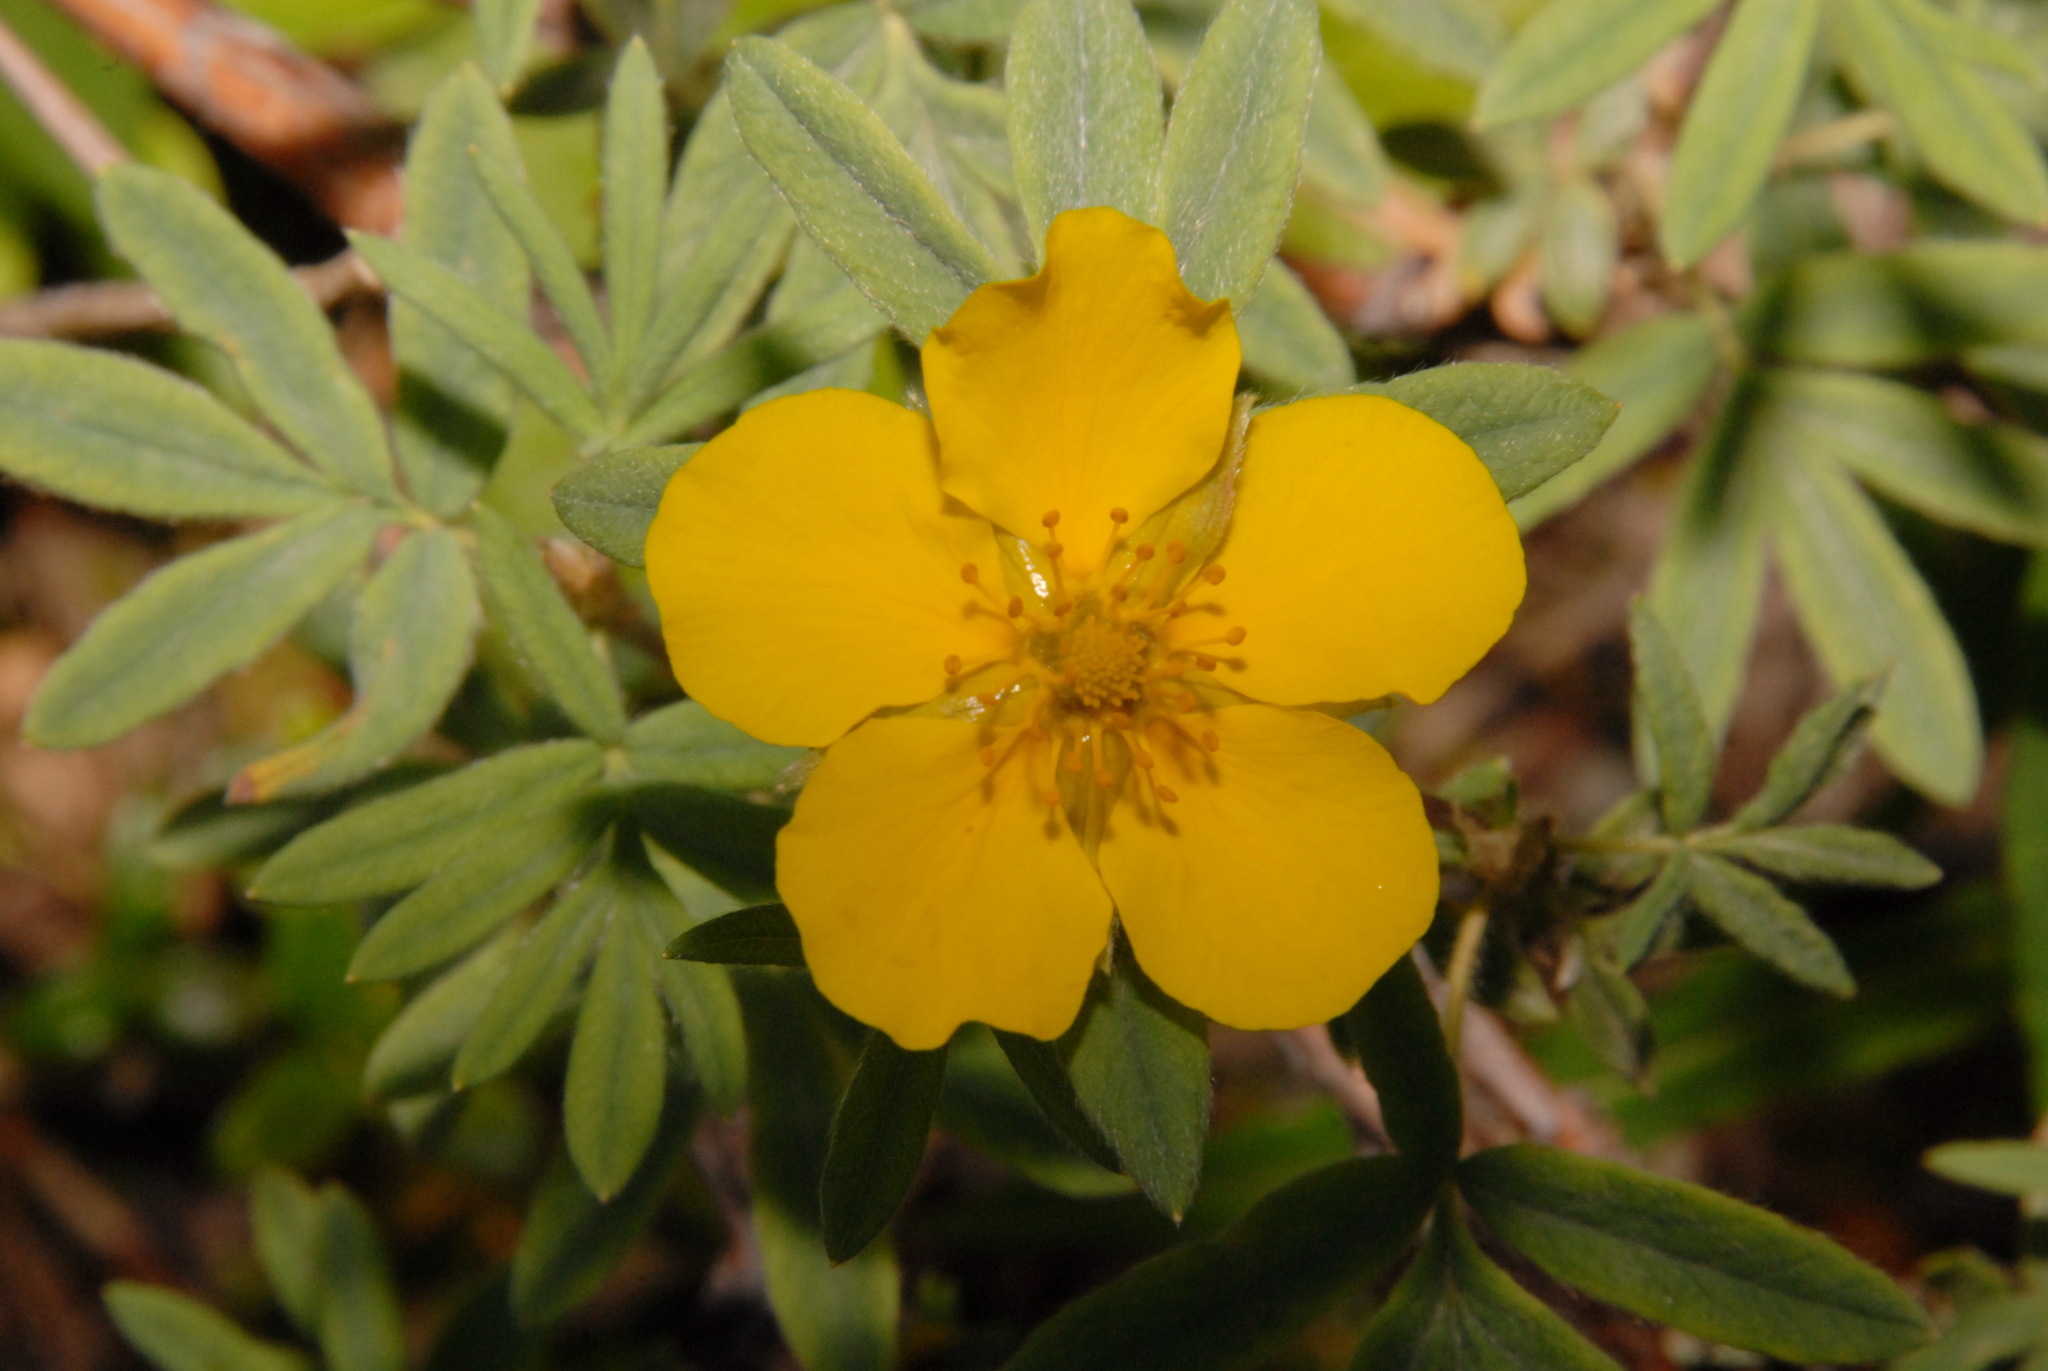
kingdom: Plantae
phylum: Tracheophyta
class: Magnoliopsida
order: Rosales
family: Rosaceae
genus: Dasiphora
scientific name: Dasiphora fruticosa
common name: Shrubby cinquefoil
